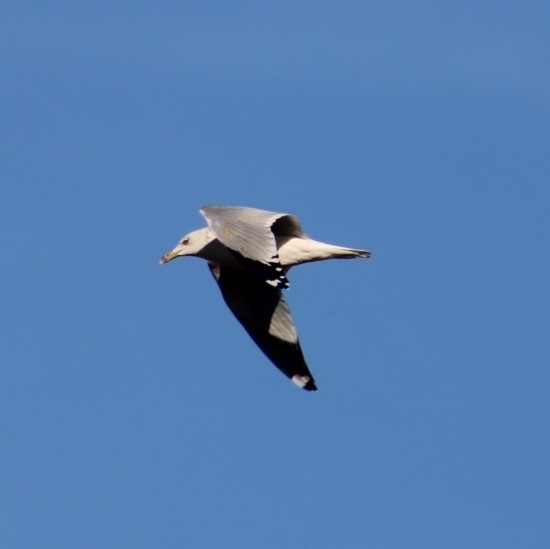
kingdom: Animalia
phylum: Chordata
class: Aves
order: Charadriiformes
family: Laridae
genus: Larus
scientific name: Larus delawarensis
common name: Ring-billed gull
